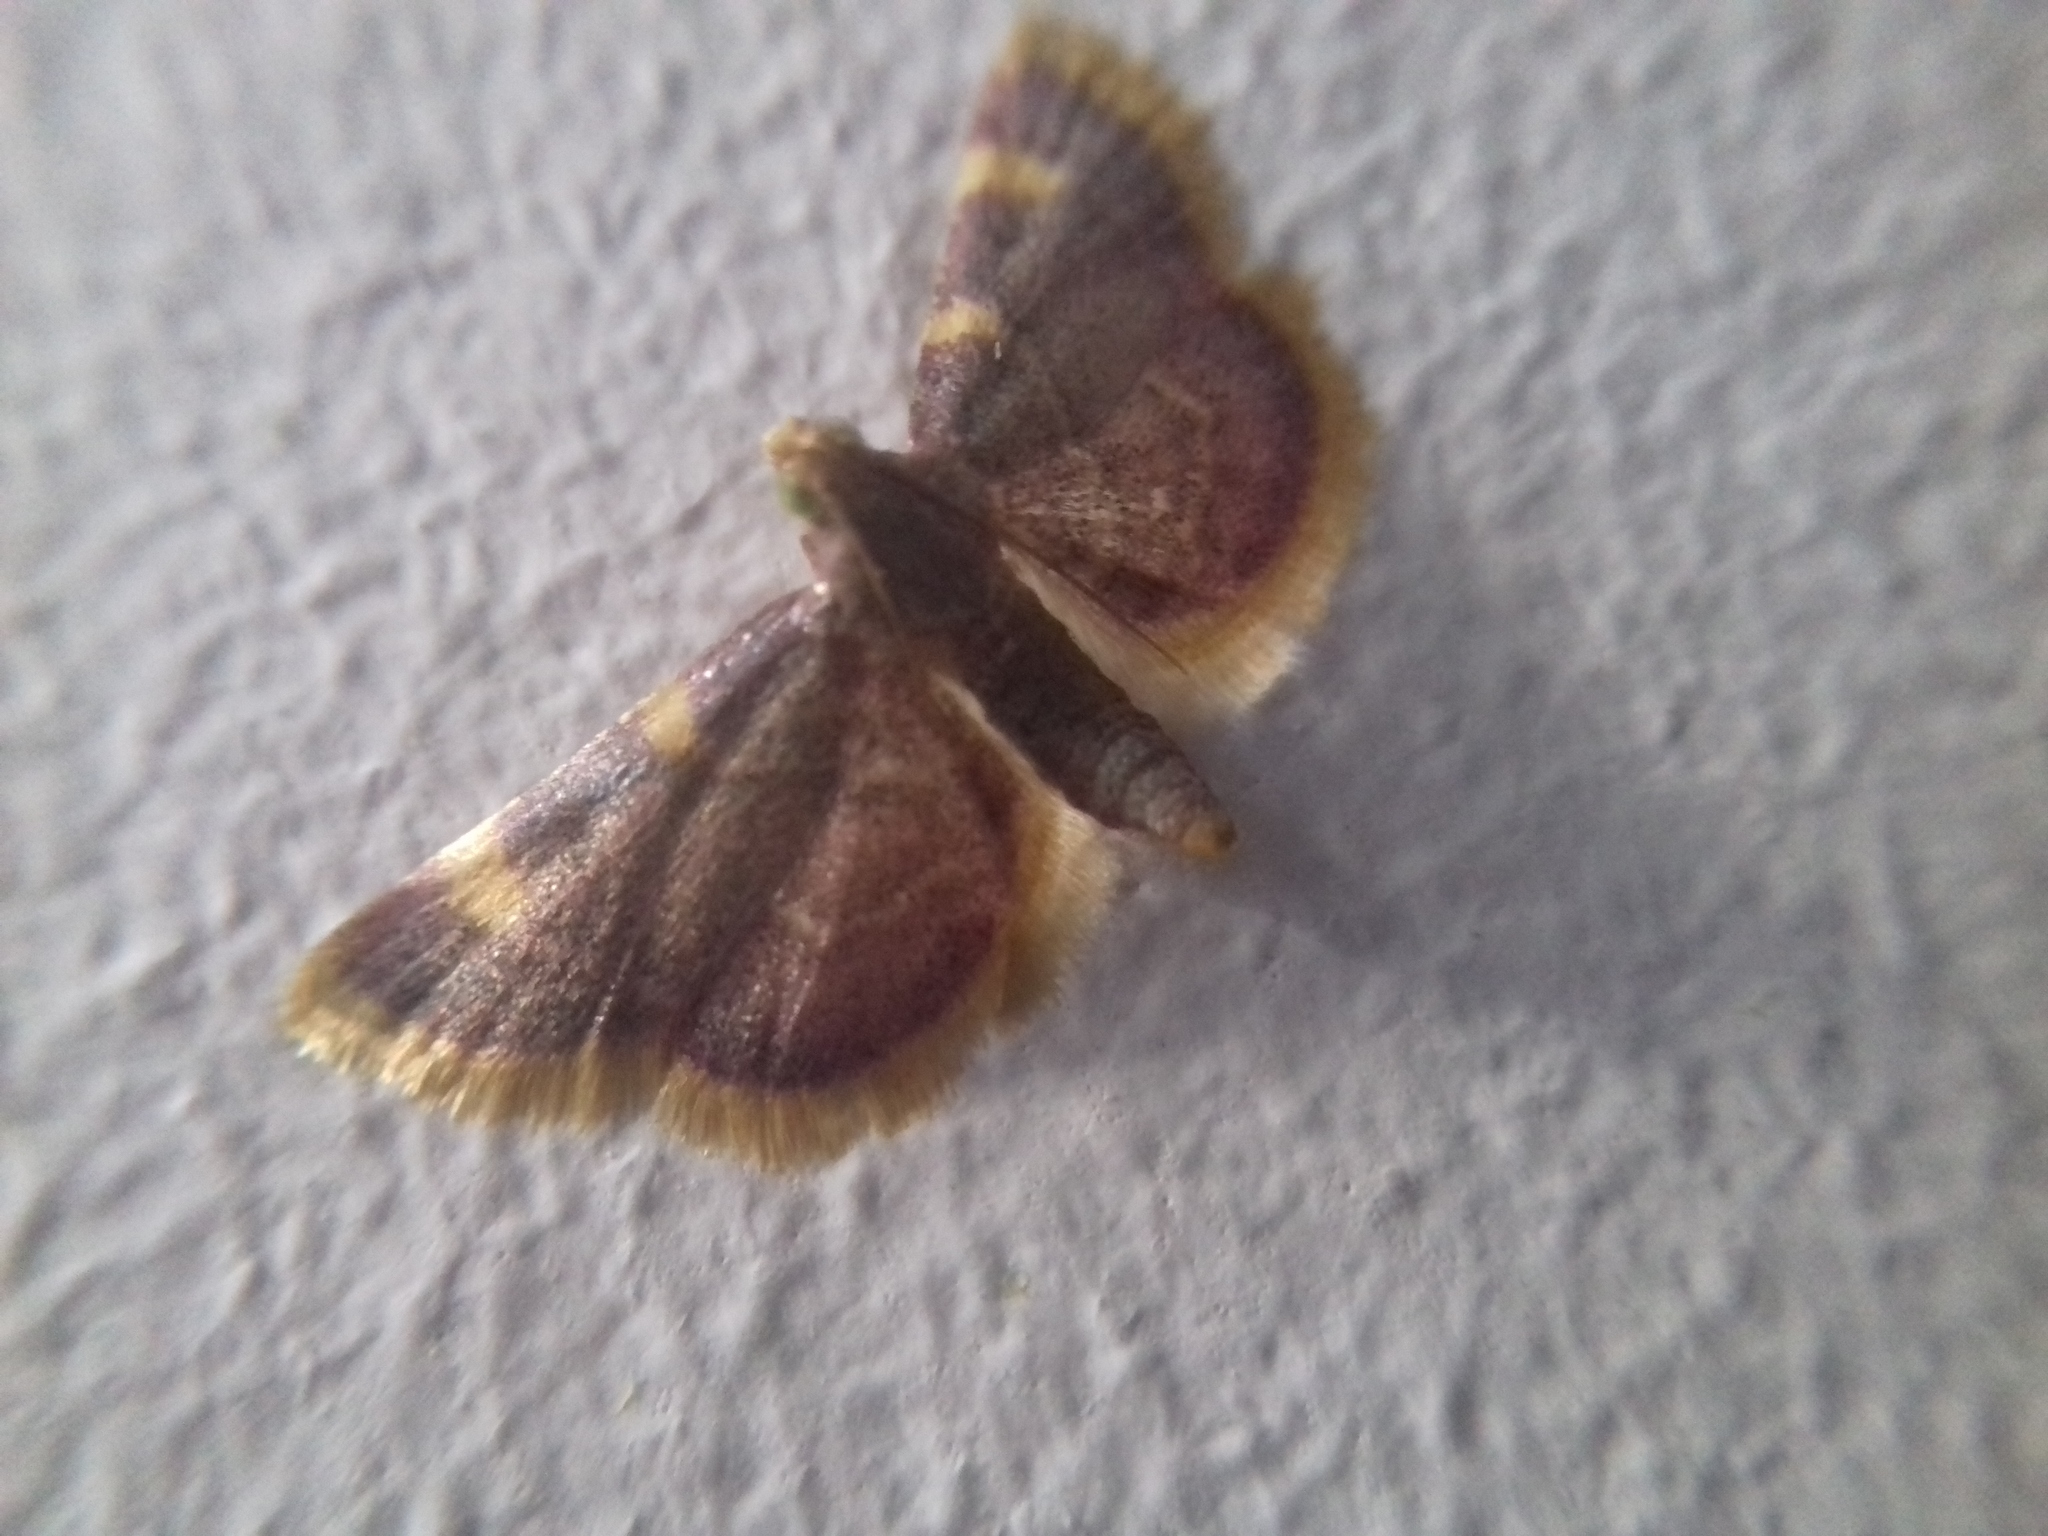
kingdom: Animalia
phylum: Arthropoda
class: Insecta
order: Lepidoptera
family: Pyralidae
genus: Hypsopygia
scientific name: Hypsopygia costalis
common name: Gold triangle
